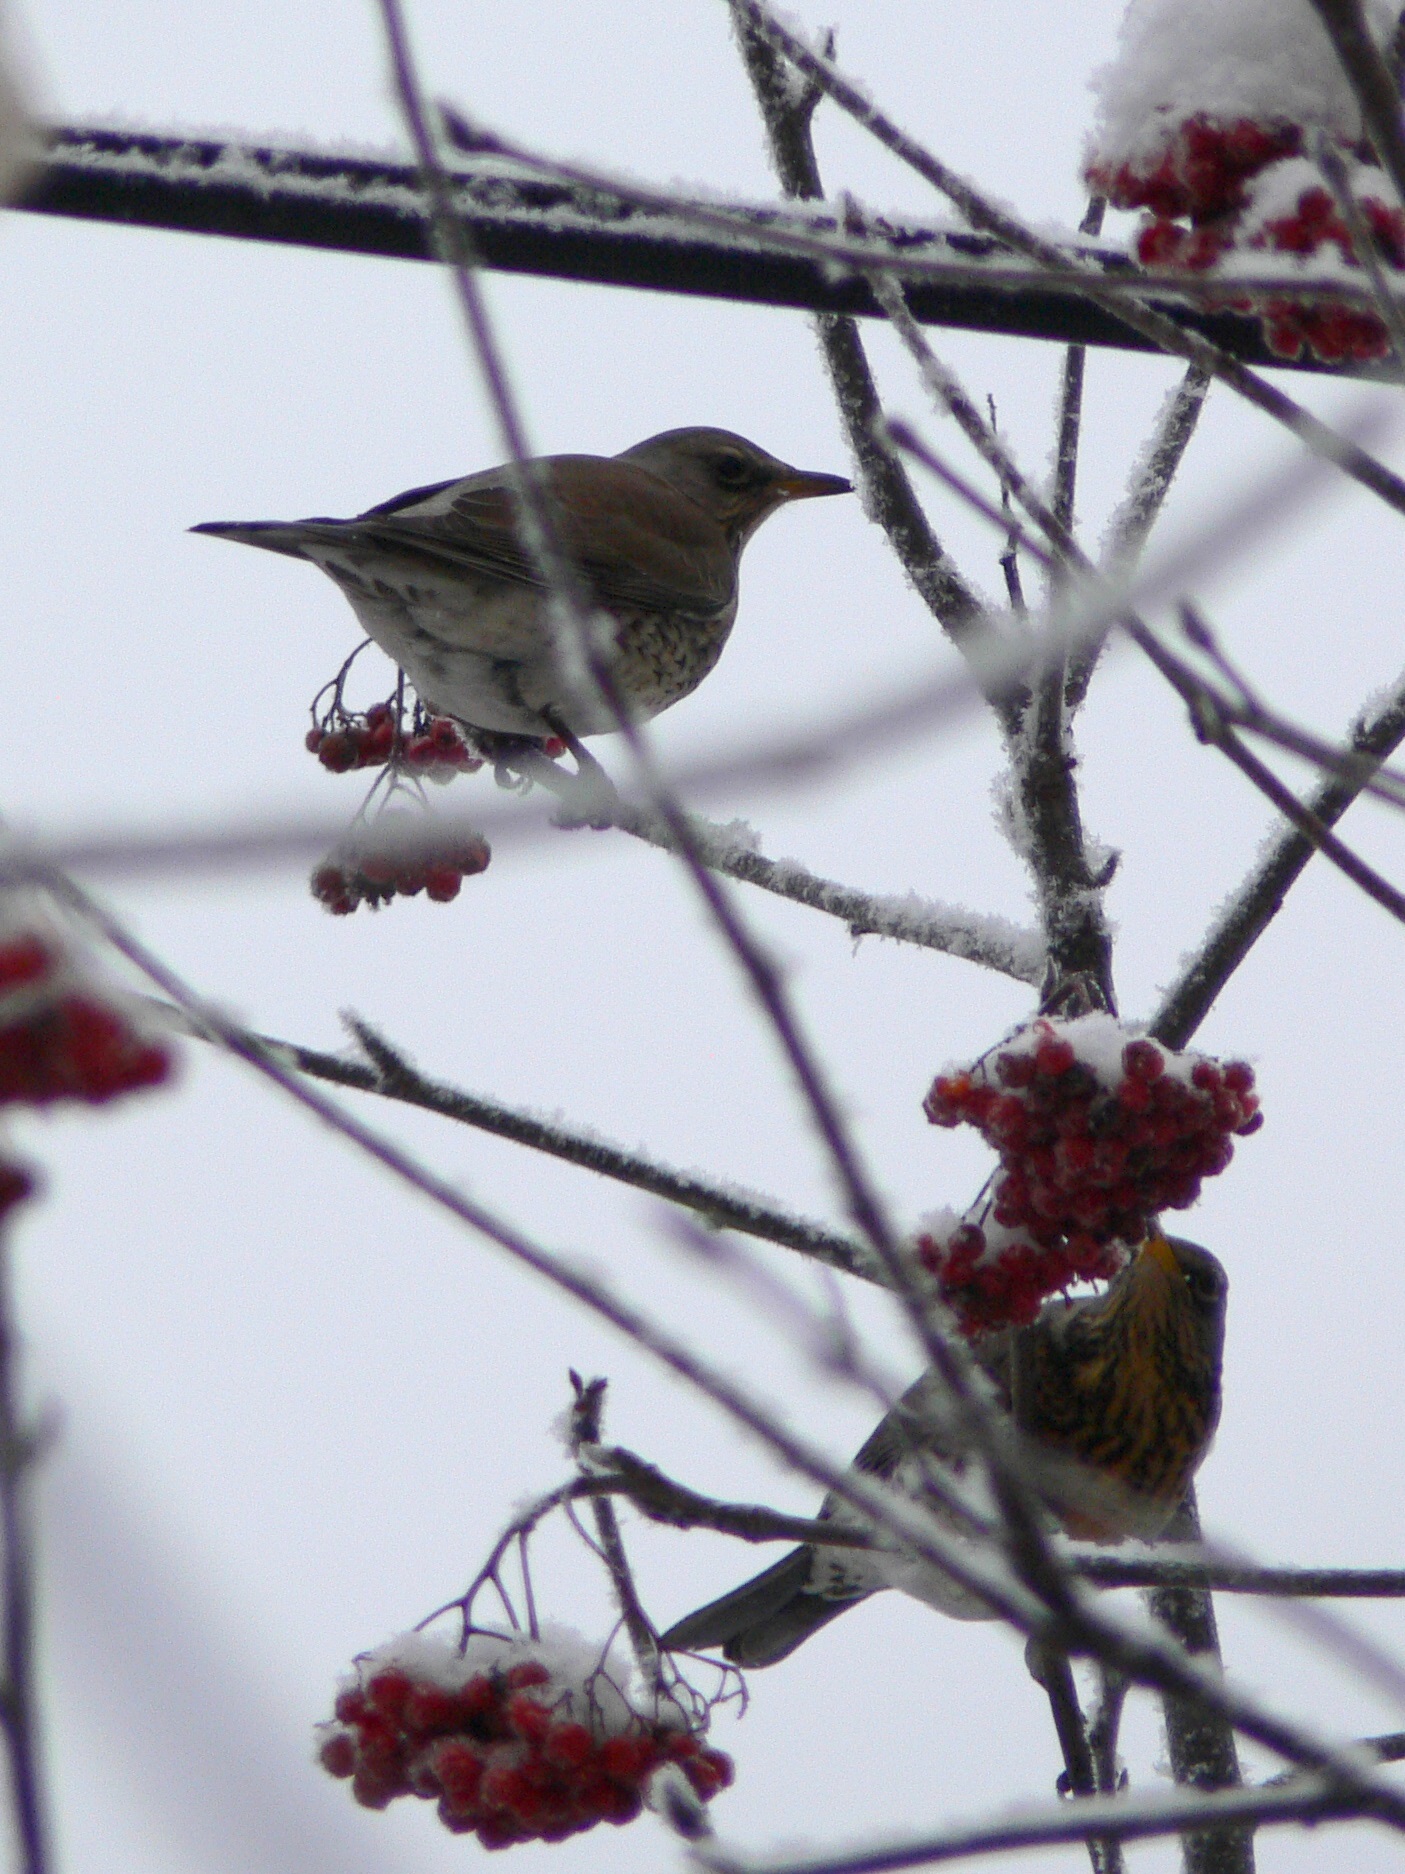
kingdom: Animalia
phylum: Chordata
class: Aves
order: Passeriformes
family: Turdidae
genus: Turdus
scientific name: Turdus pilaris
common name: Fieldfare
